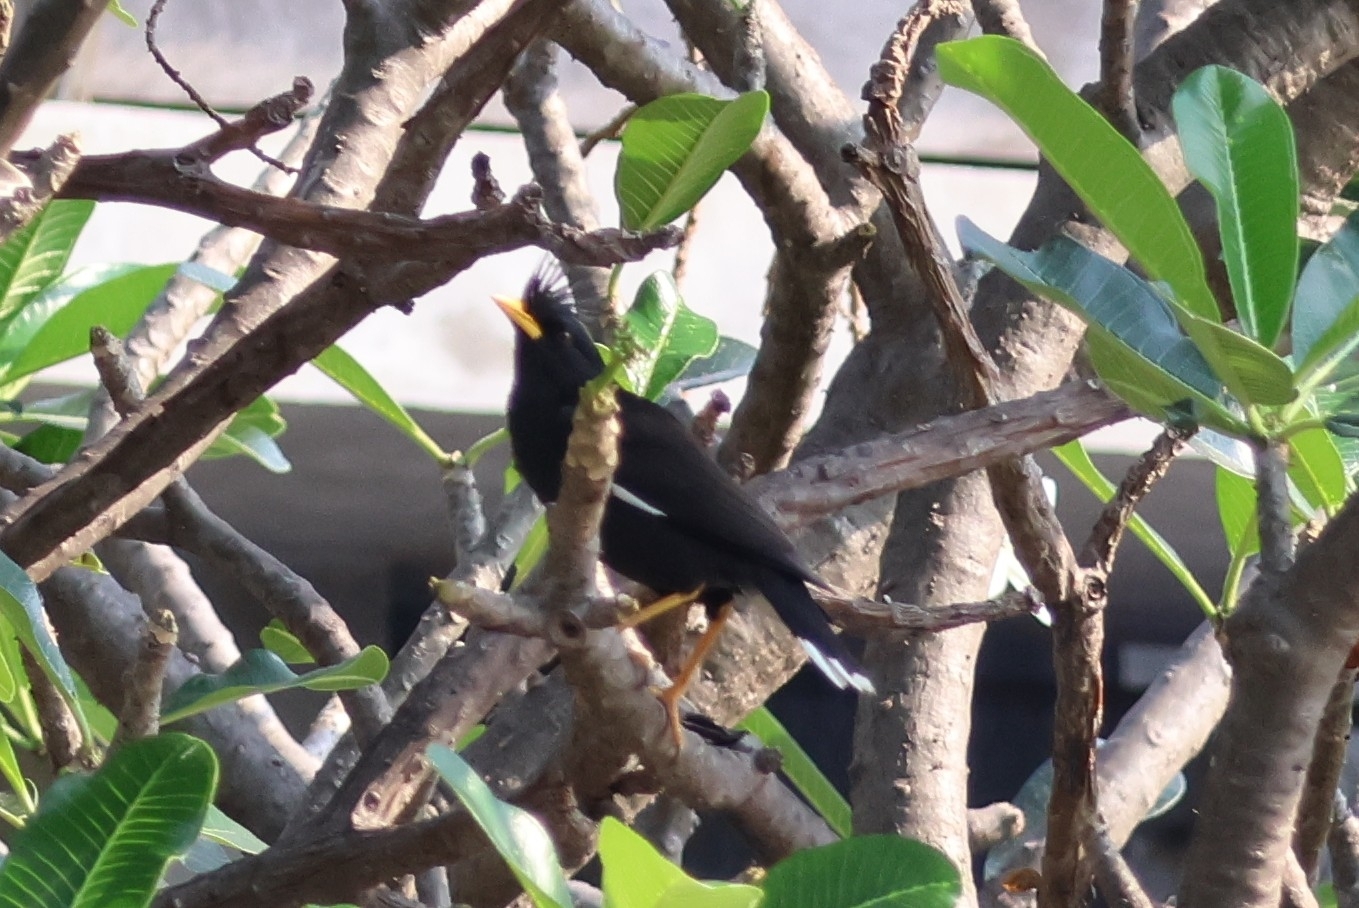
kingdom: Animalia
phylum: Chordata
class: Aves
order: Passeriformes
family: Sturnidae
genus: Acridotheres
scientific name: Acridotheres grandis
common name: Great myna
